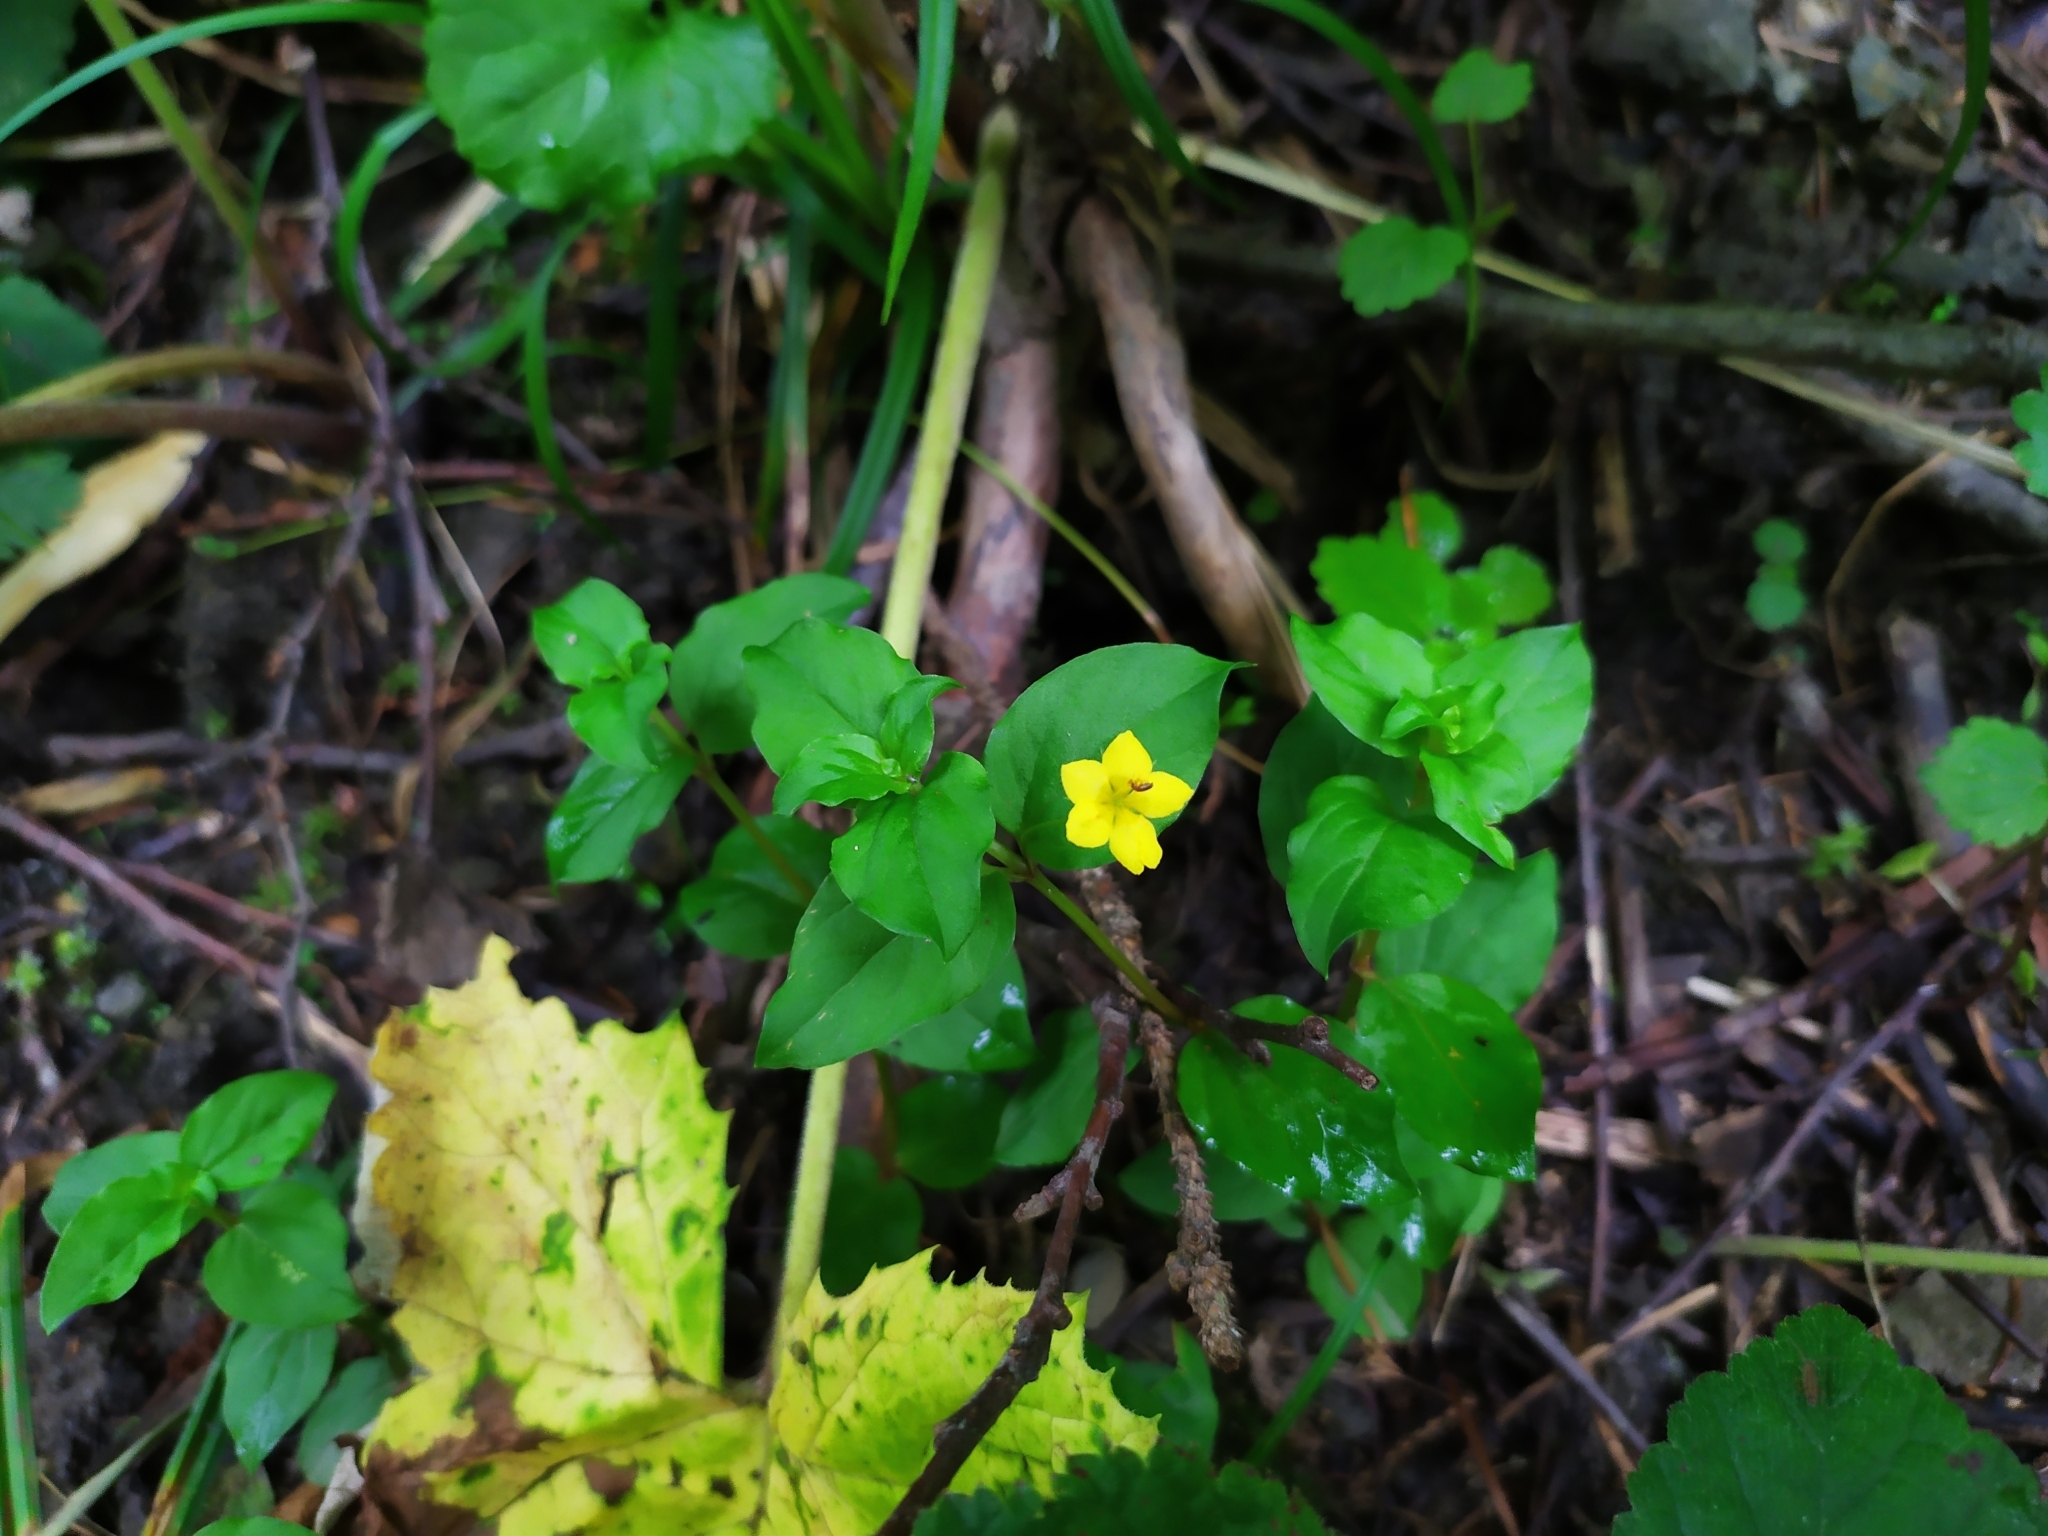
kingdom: Plantae
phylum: Tracheophyta
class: Magnoliopsida
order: Ericales
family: Primulaceae
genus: Lysimachia
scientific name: Lysimachia nemorum
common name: Yellow pimpernel
